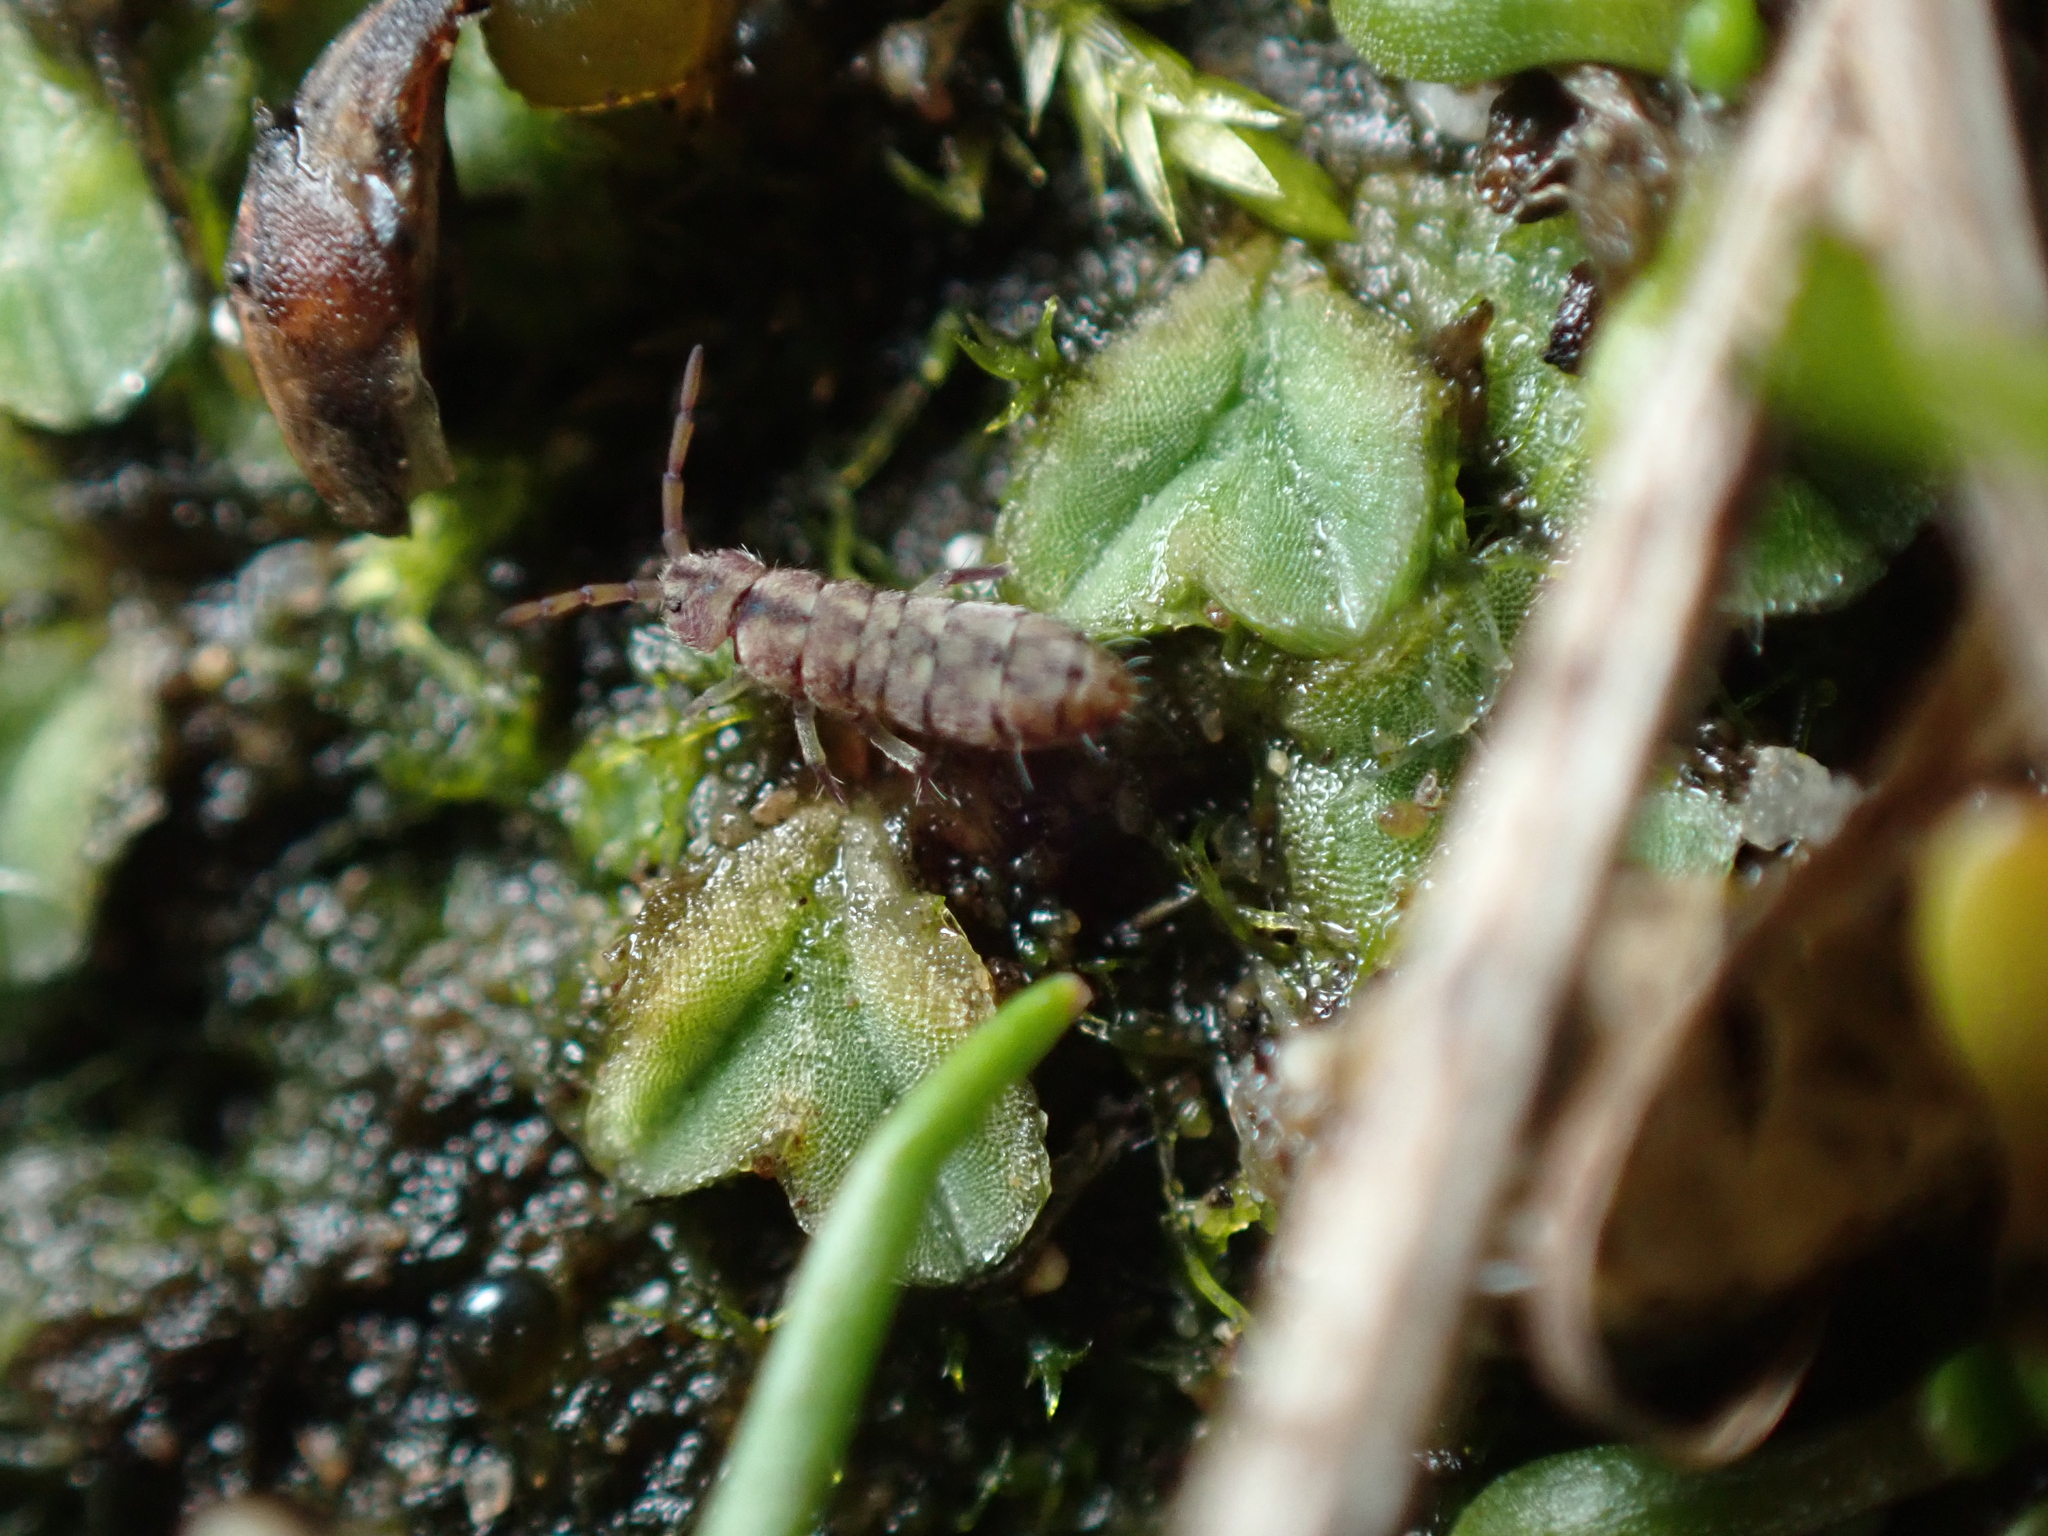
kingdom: Plantae
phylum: Marchantiophyta
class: Marchantiopsida
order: Marchantiales
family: Ricciaceae
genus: Riccia
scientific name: Riccia sorocarpa
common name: Common crystalwort
